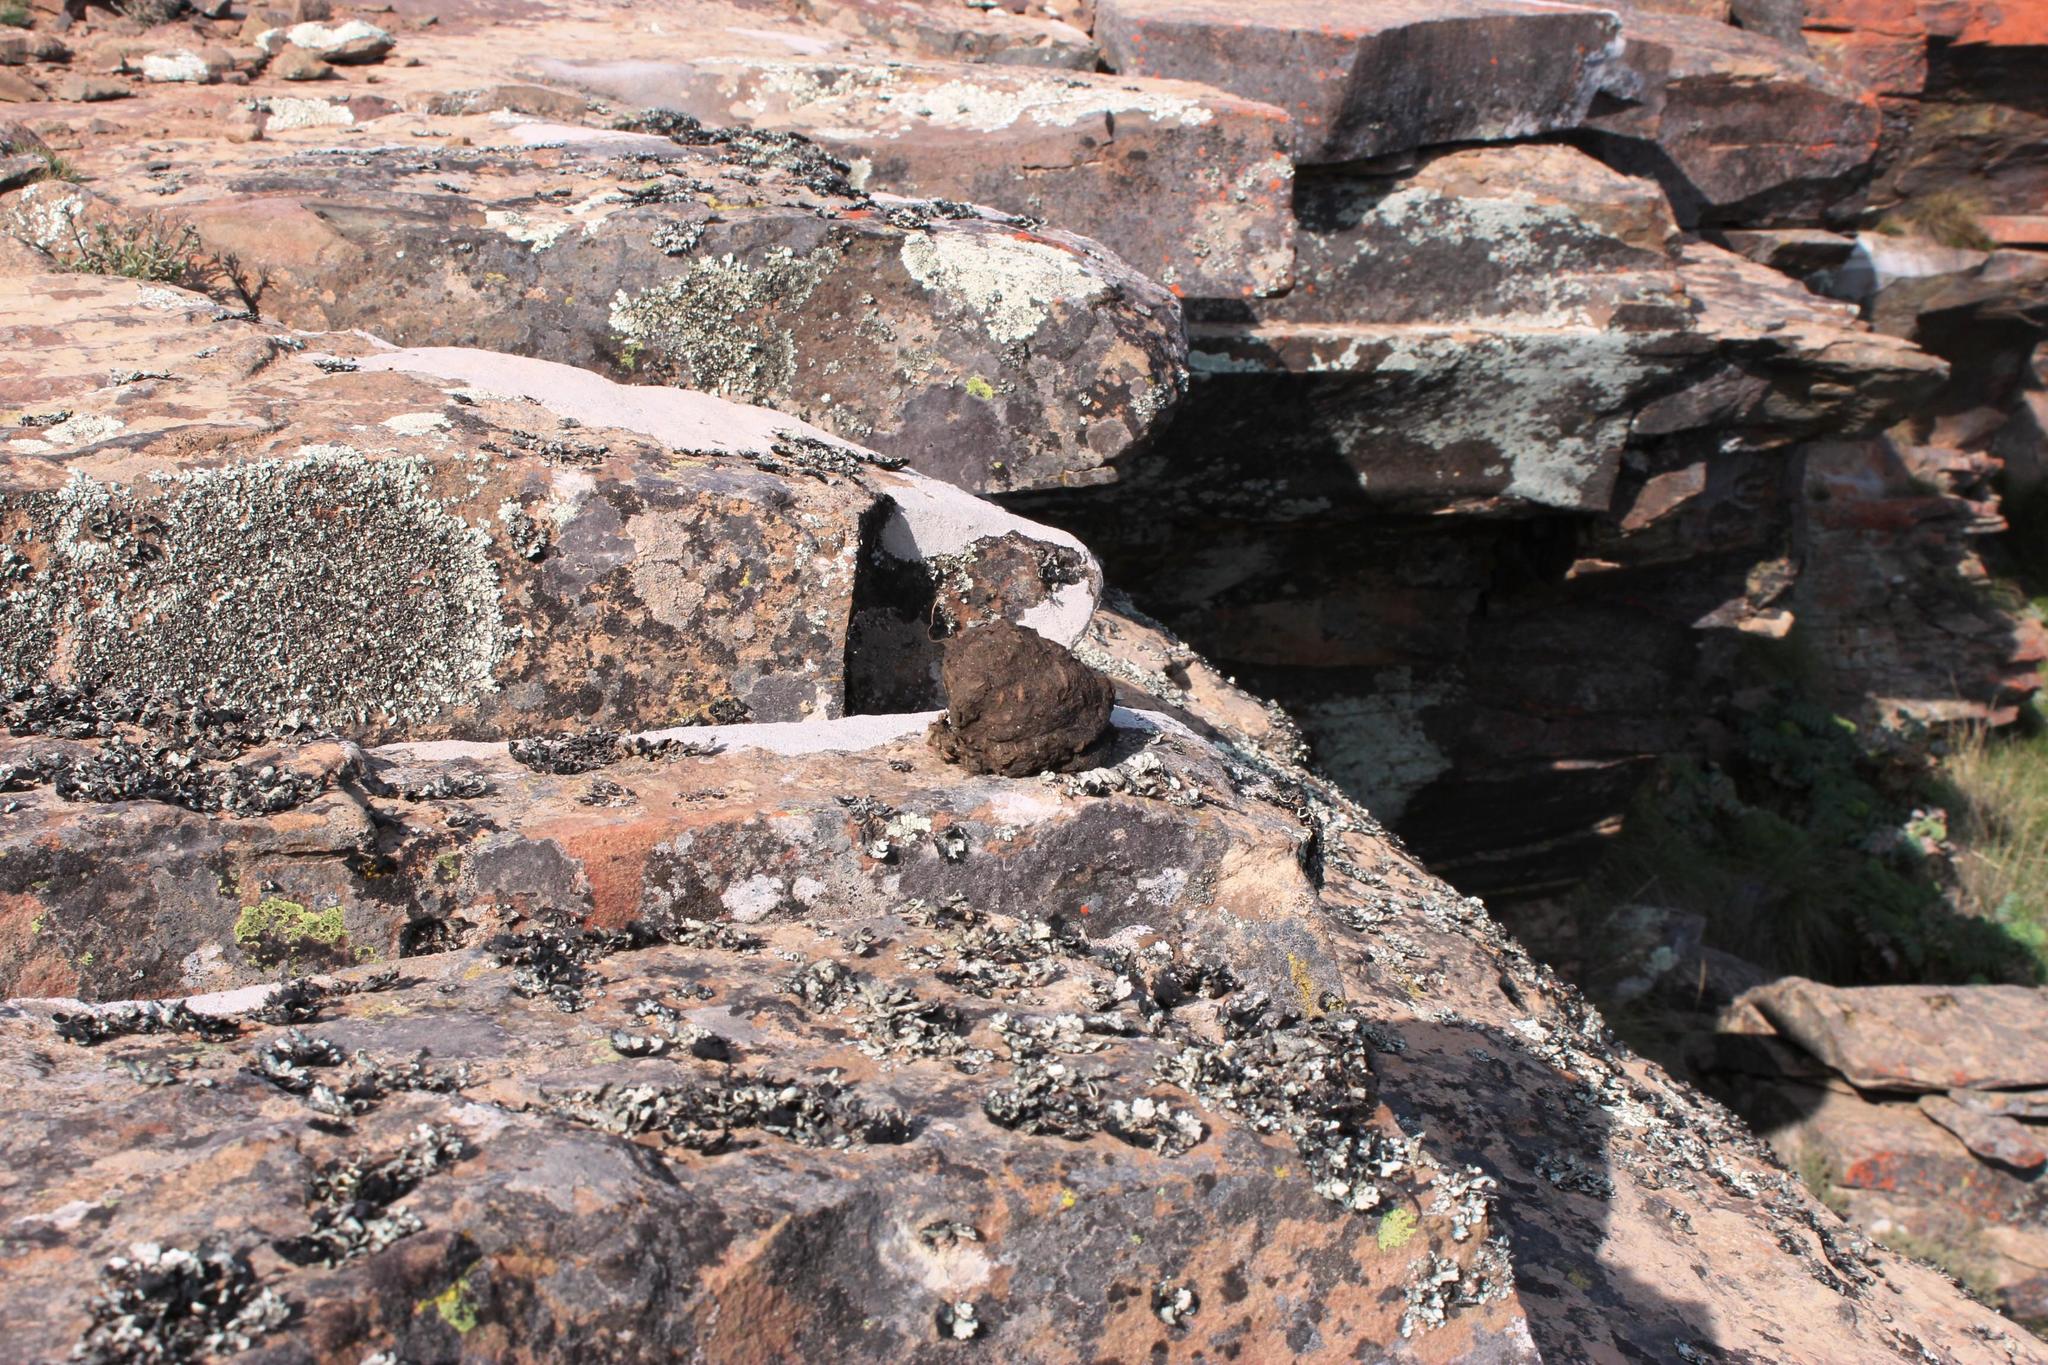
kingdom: Animalia
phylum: Chordata
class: Mammalia
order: Primates
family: Cercopithecidae
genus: Papio
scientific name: Papio ursinus
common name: Chacma baboon
